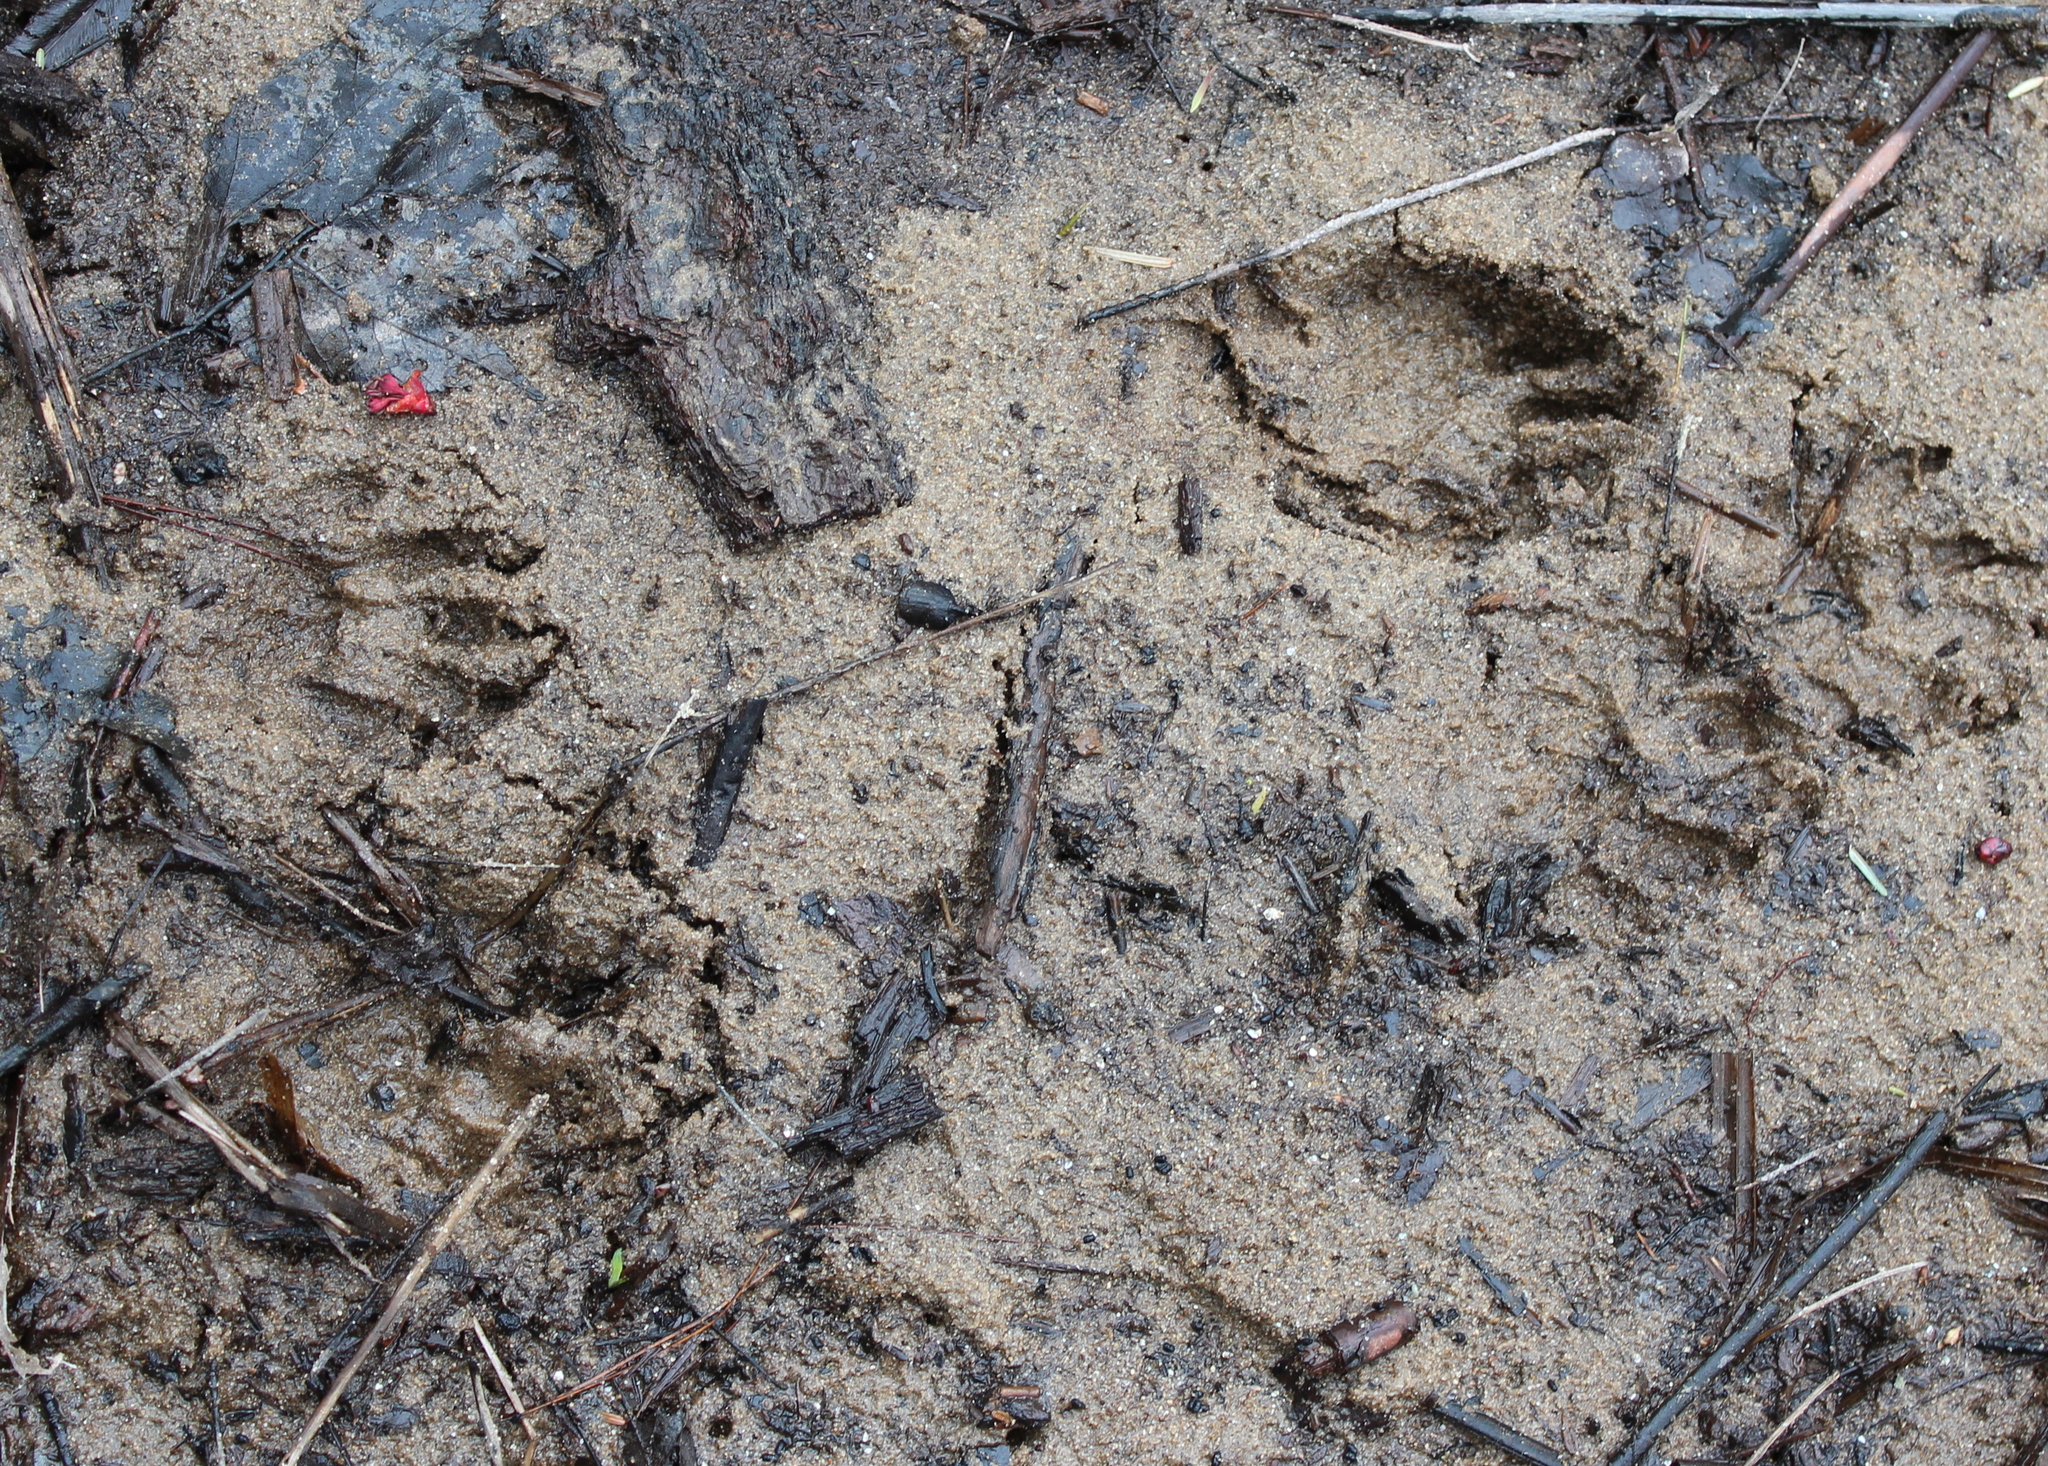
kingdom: Animalia
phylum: Chordata
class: Mammalia
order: Carnivora
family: Procyonidae
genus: Procyon
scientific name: Procyon lotor
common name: Raccoon
